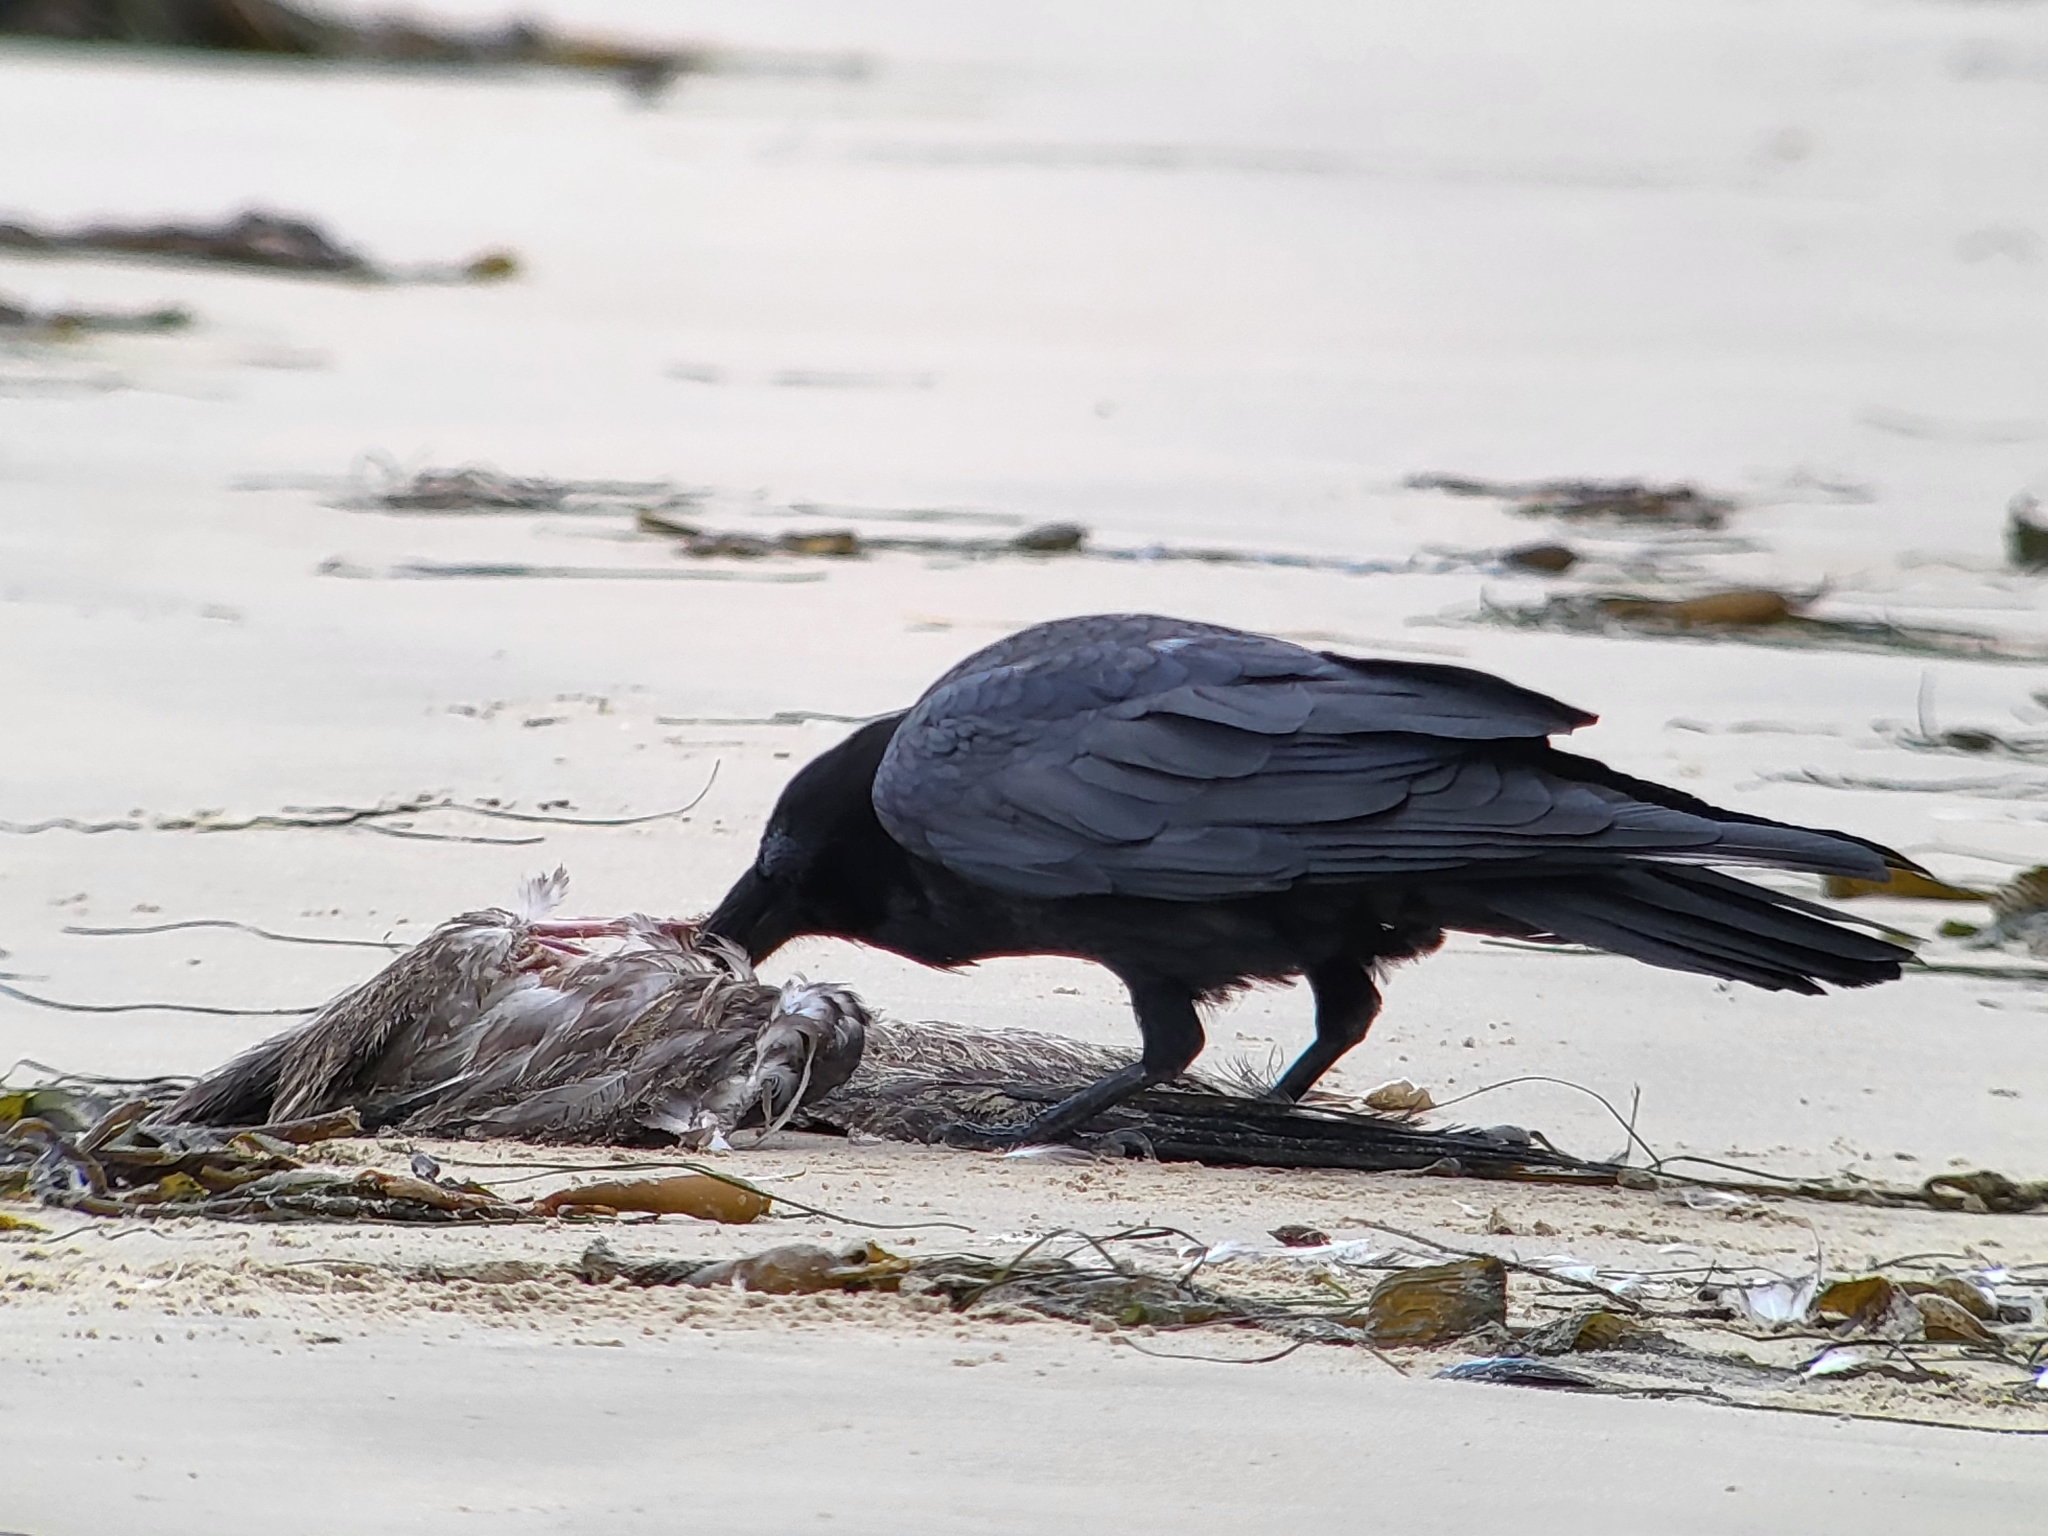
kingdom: Animalia
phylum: Chordata
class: Aves
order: Passeriformes
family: Corvidae
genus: Corvus
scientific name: Corvus corax
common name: Common raven
